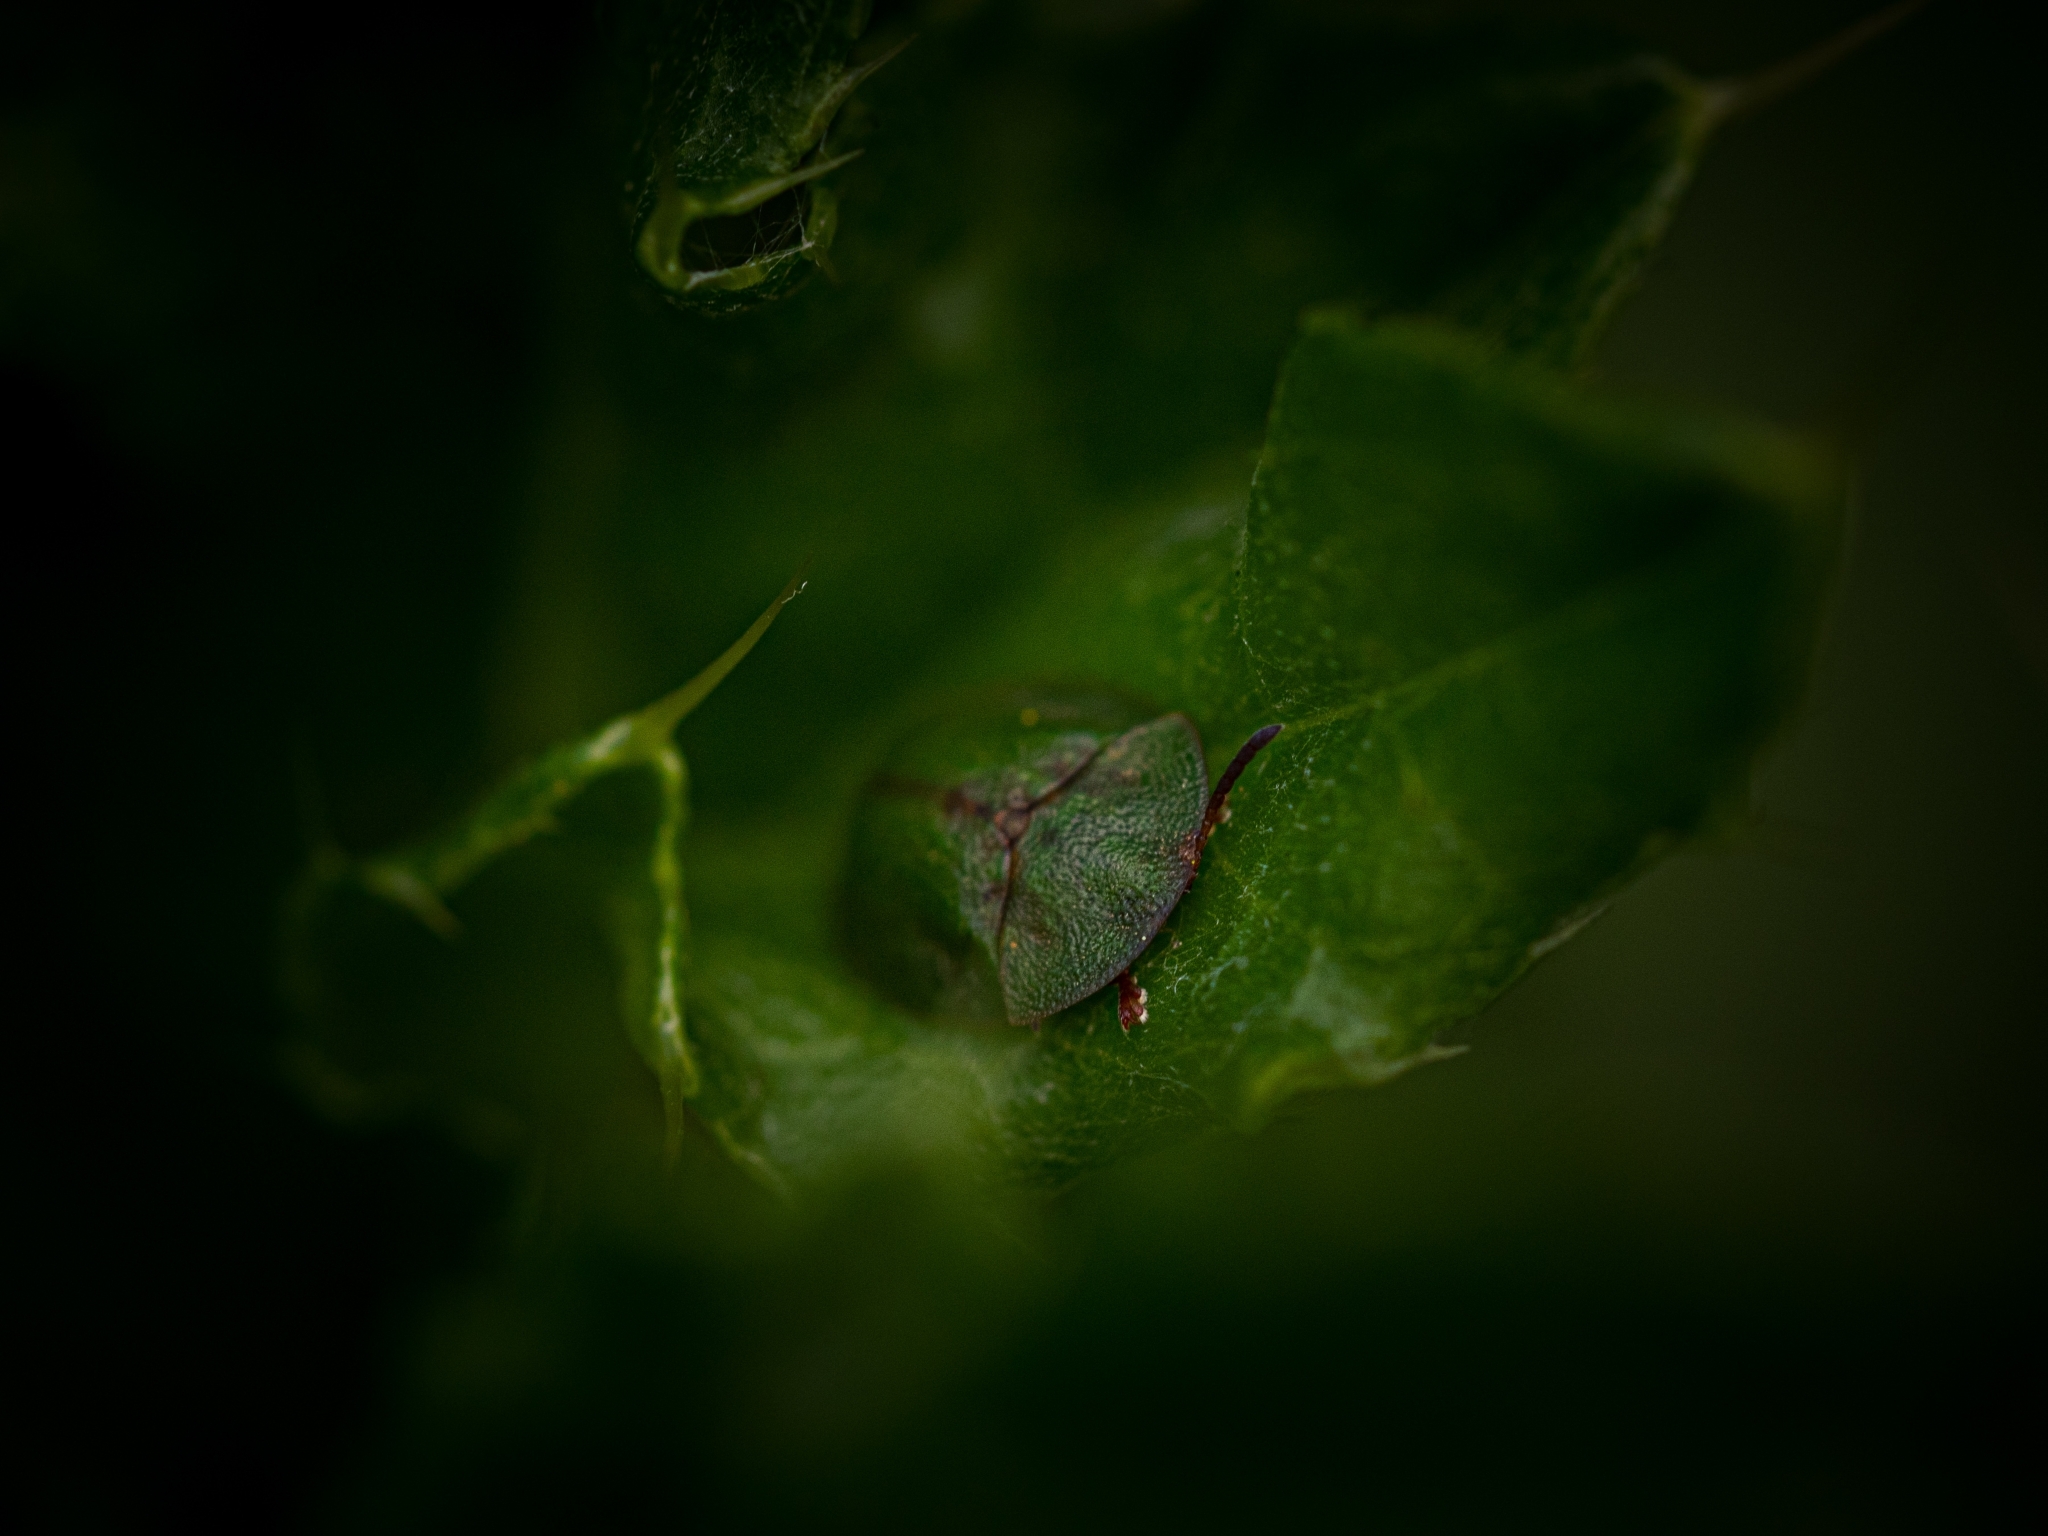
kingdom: Animalia
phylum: Arthropoda
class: Insecta
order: Coleoptera
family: Chrysomelidae
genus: Cassida
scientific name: Cassida rubiginosa
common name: Thistle tortoise beetle
